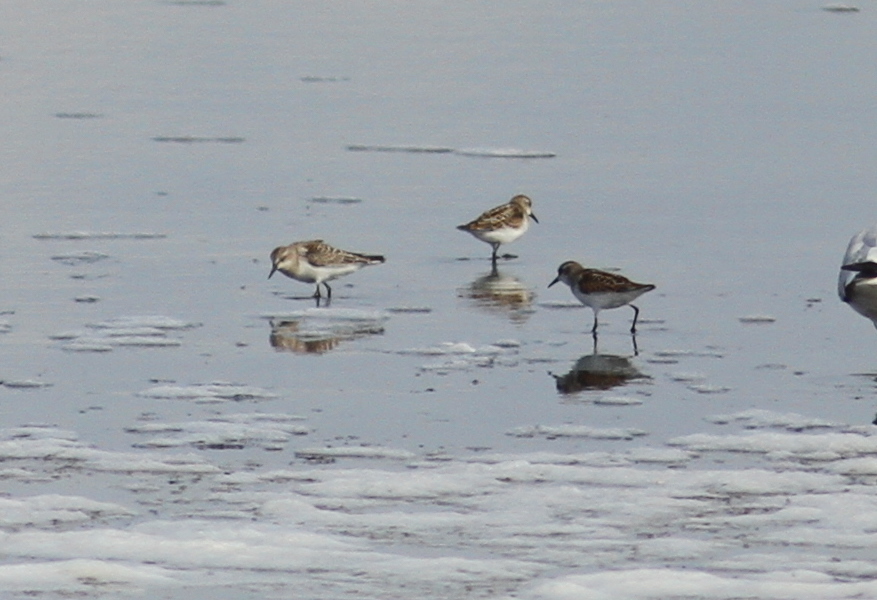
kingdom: Animalia
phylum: Chordata
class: Aves
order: Charadriiformes
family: Scolopacidae
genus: Calidris
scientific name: Calidris ruficollis
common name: Red-necked stint
